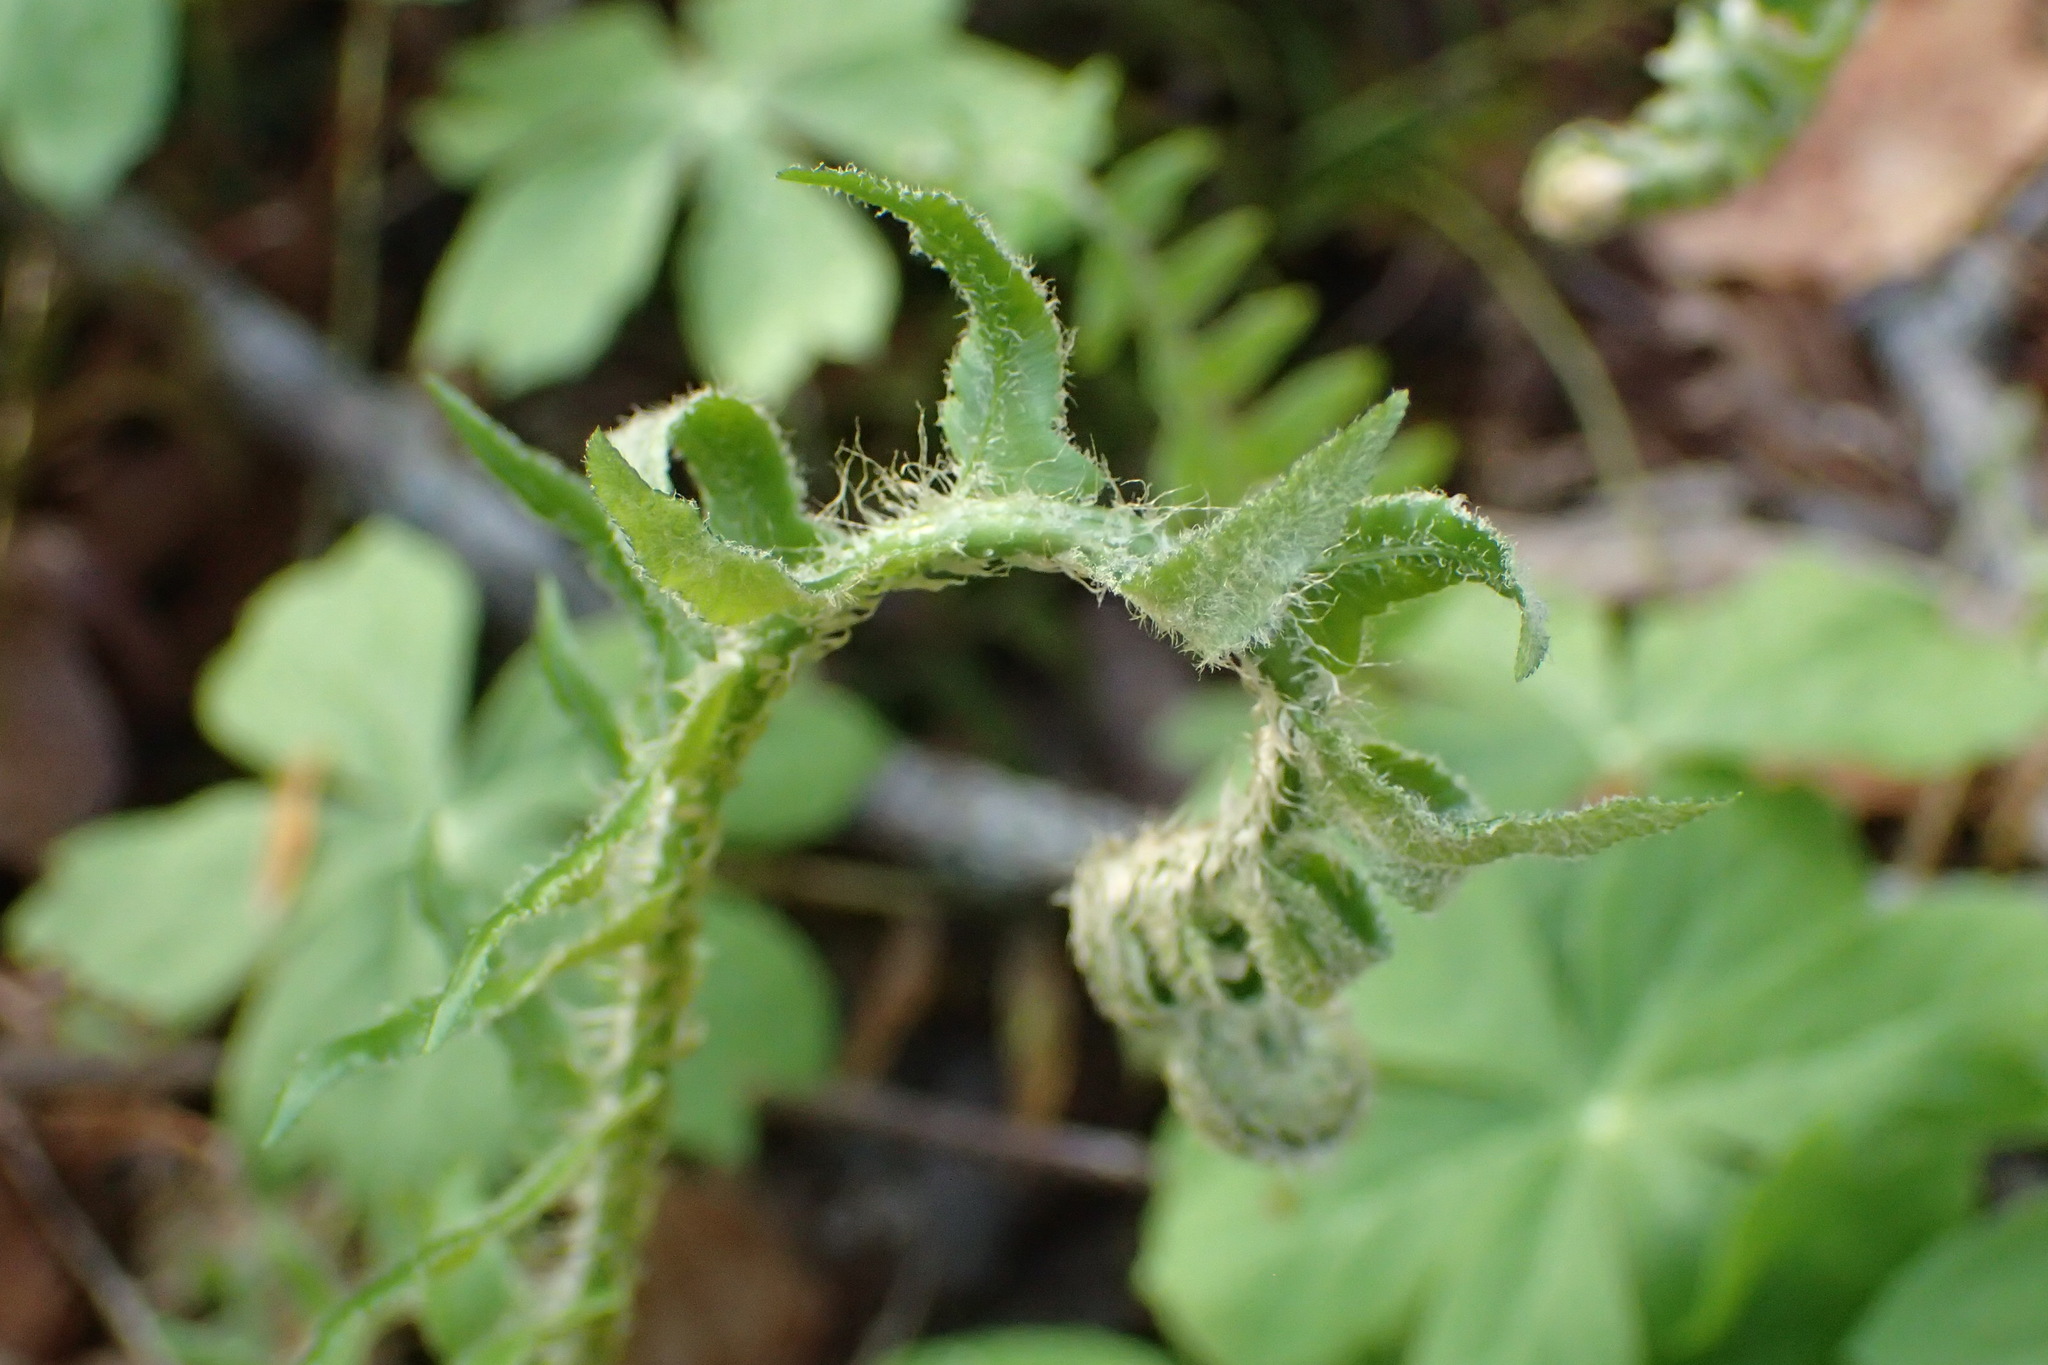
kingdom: Plantae
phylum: Tracheophyta
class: Polypodiopsida
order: Polypodiales
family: Dryopteridaceae
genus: Polystichum
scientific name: Polystichum acrostichoides
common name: Christmas fern
